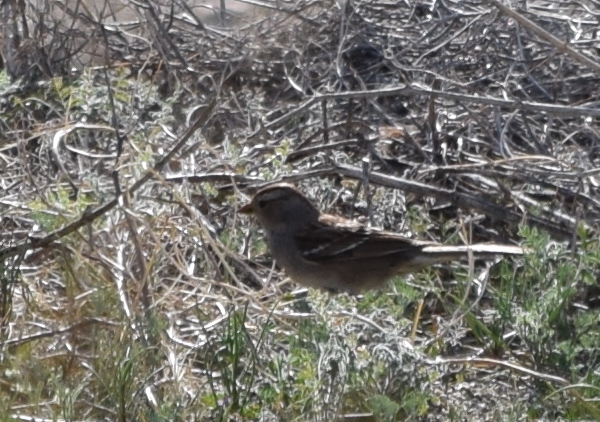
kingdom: Animalia
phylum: Chordata
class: Aves
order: Passeriformes
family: Passerellidae
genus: Zonotrichia
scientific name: Zonotrichia leucophrys
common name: White-crowned sparrow
